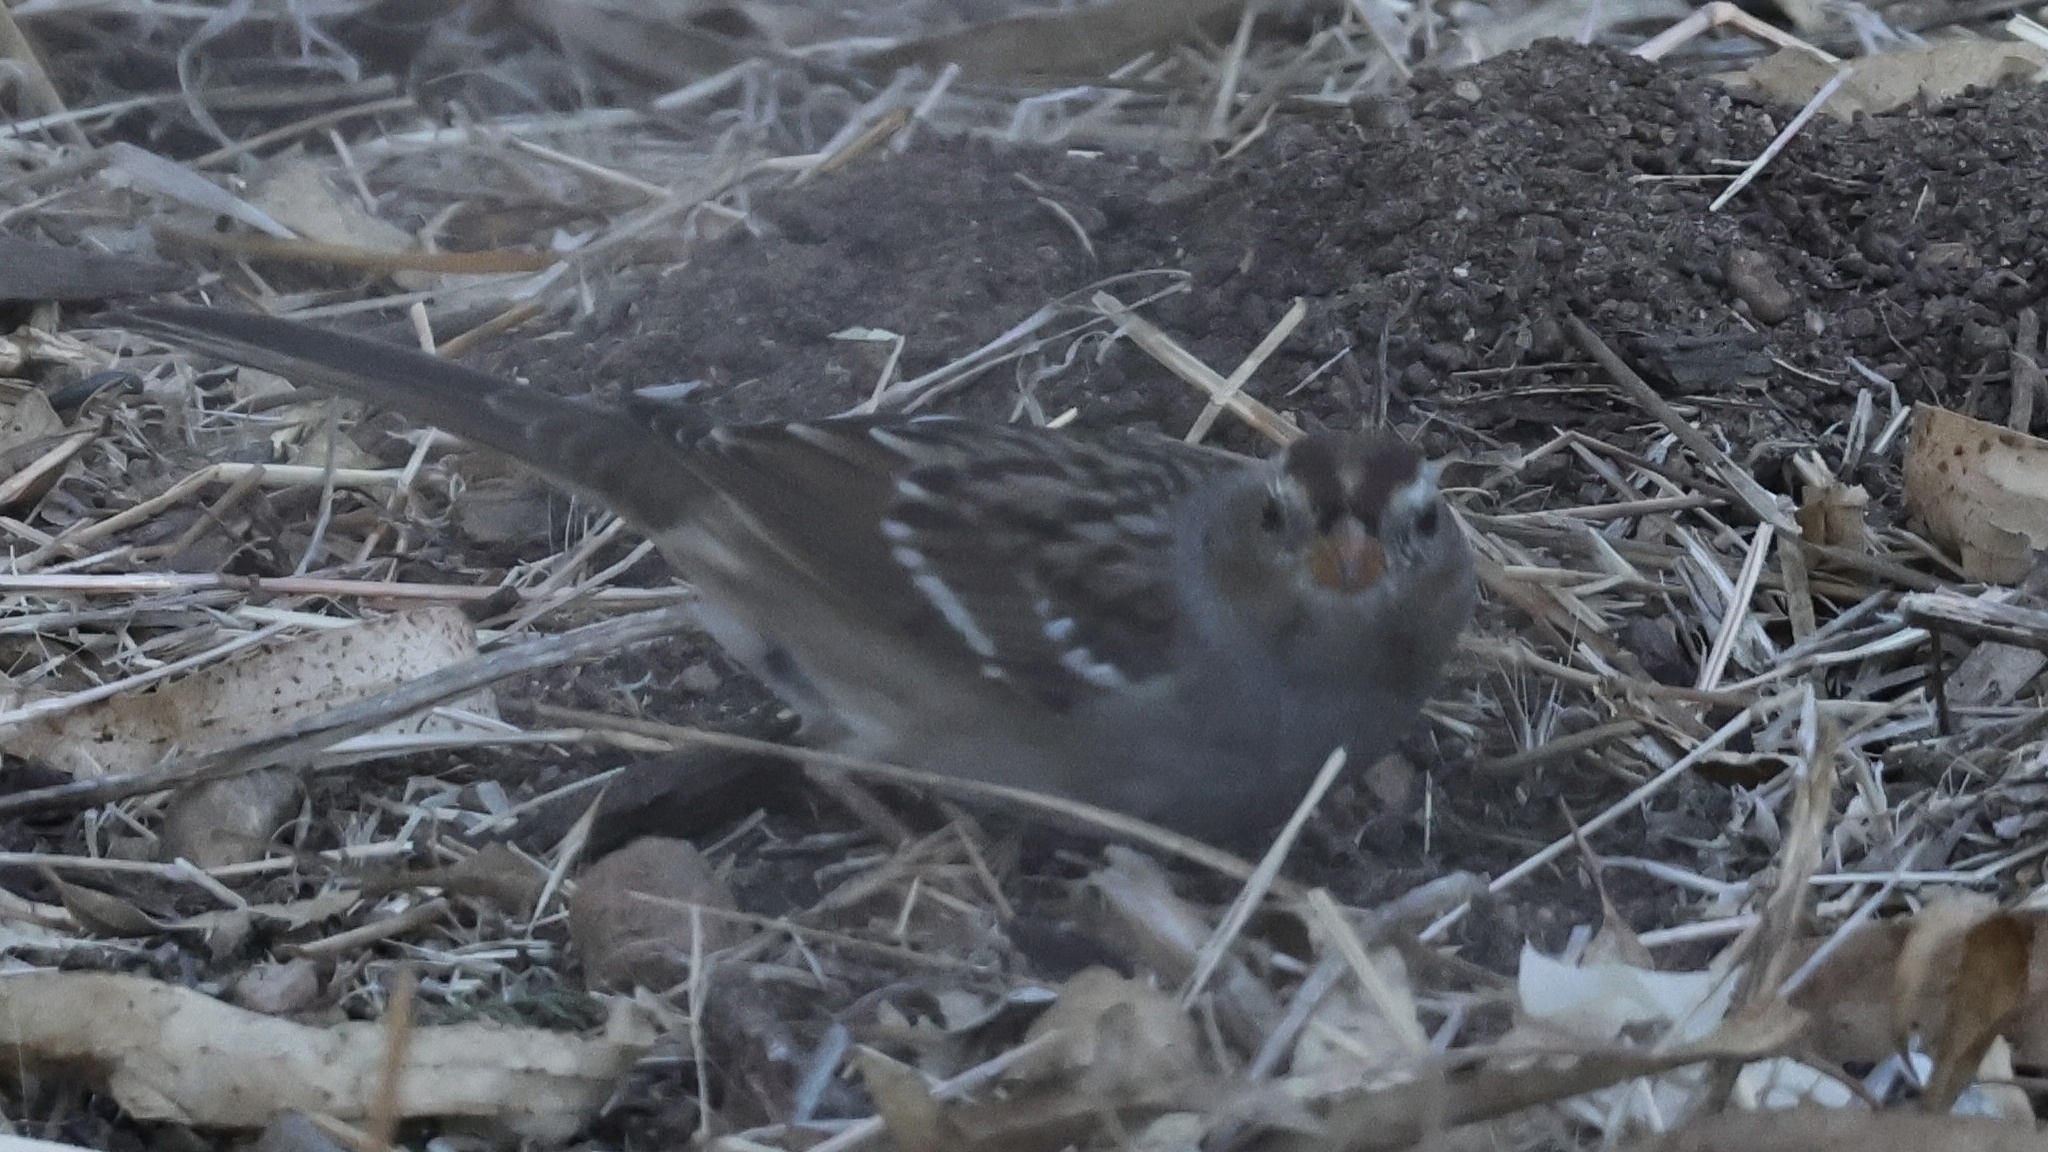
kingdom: Animalia
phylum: Chordata
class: Aves
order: Passeriformes
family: Passerellidae
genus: Zonotrichia
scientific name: Zonotrichia leucophrys
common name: White-crowned sparrow
